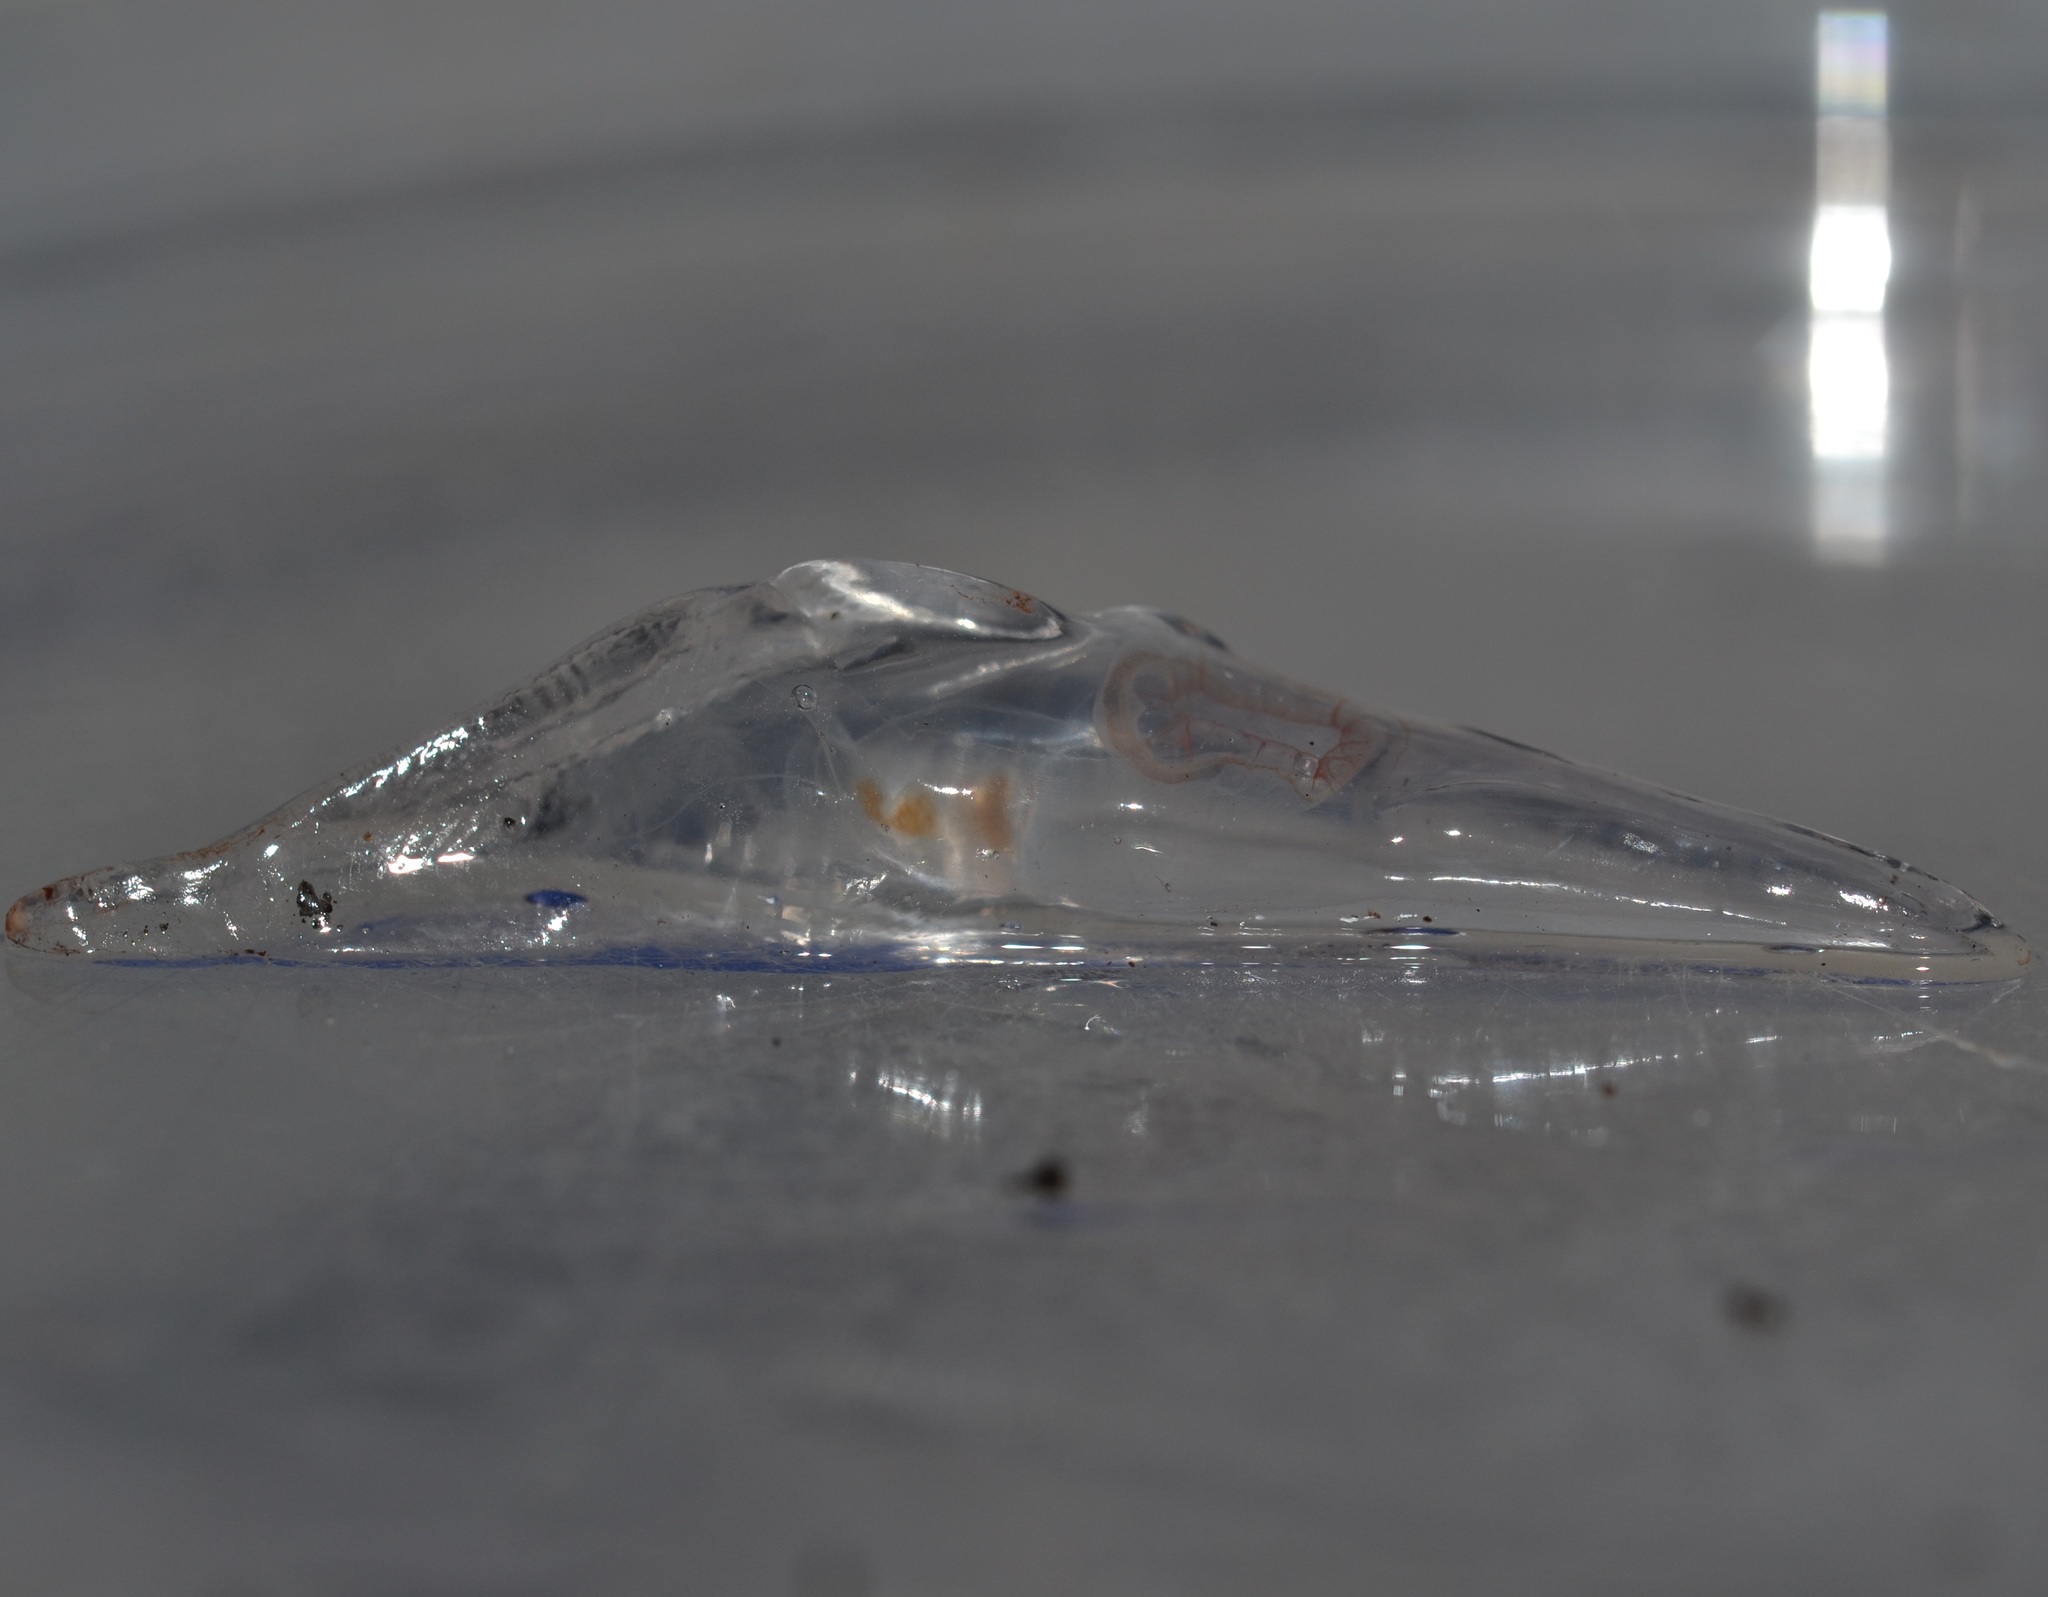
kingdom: Animalia
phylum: Cnidaria
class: Hydrozoa
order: Siphonophorae
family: Prayidae
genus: Nectopyramis
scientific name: Nectopyramis natans
